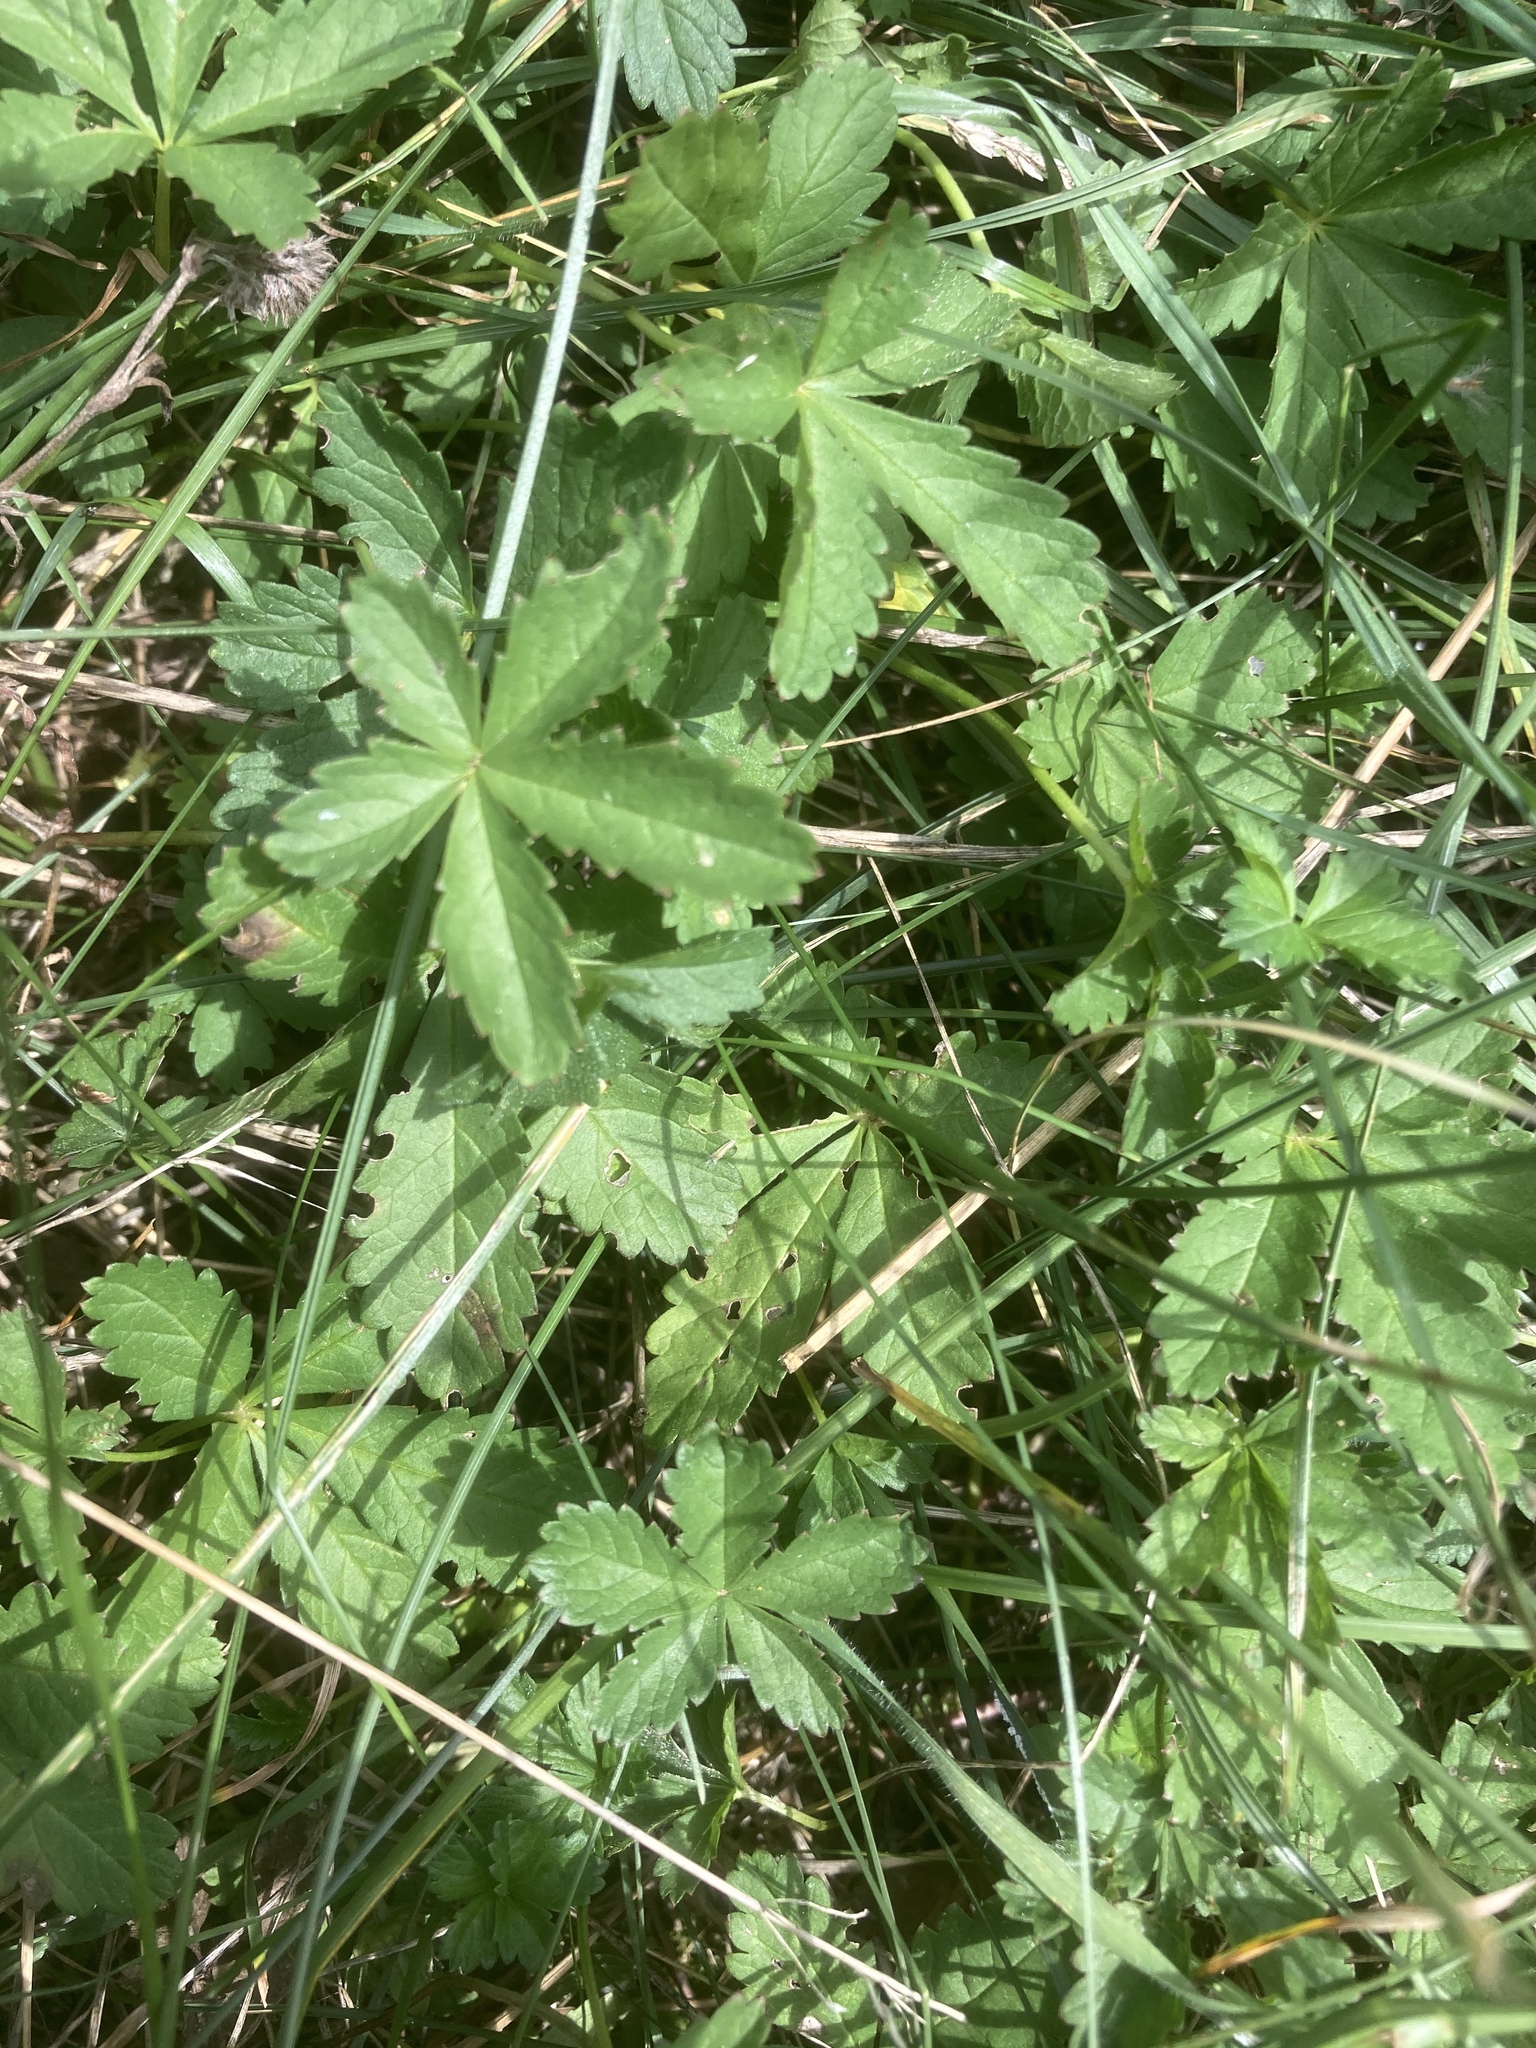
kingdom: Plantae
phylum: Tracheophyta
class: Magnoliopsida
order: Rosales
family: Rosaceae
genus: Potentilla
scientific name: Potentilla reptans
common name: Creeping cinquefoil
